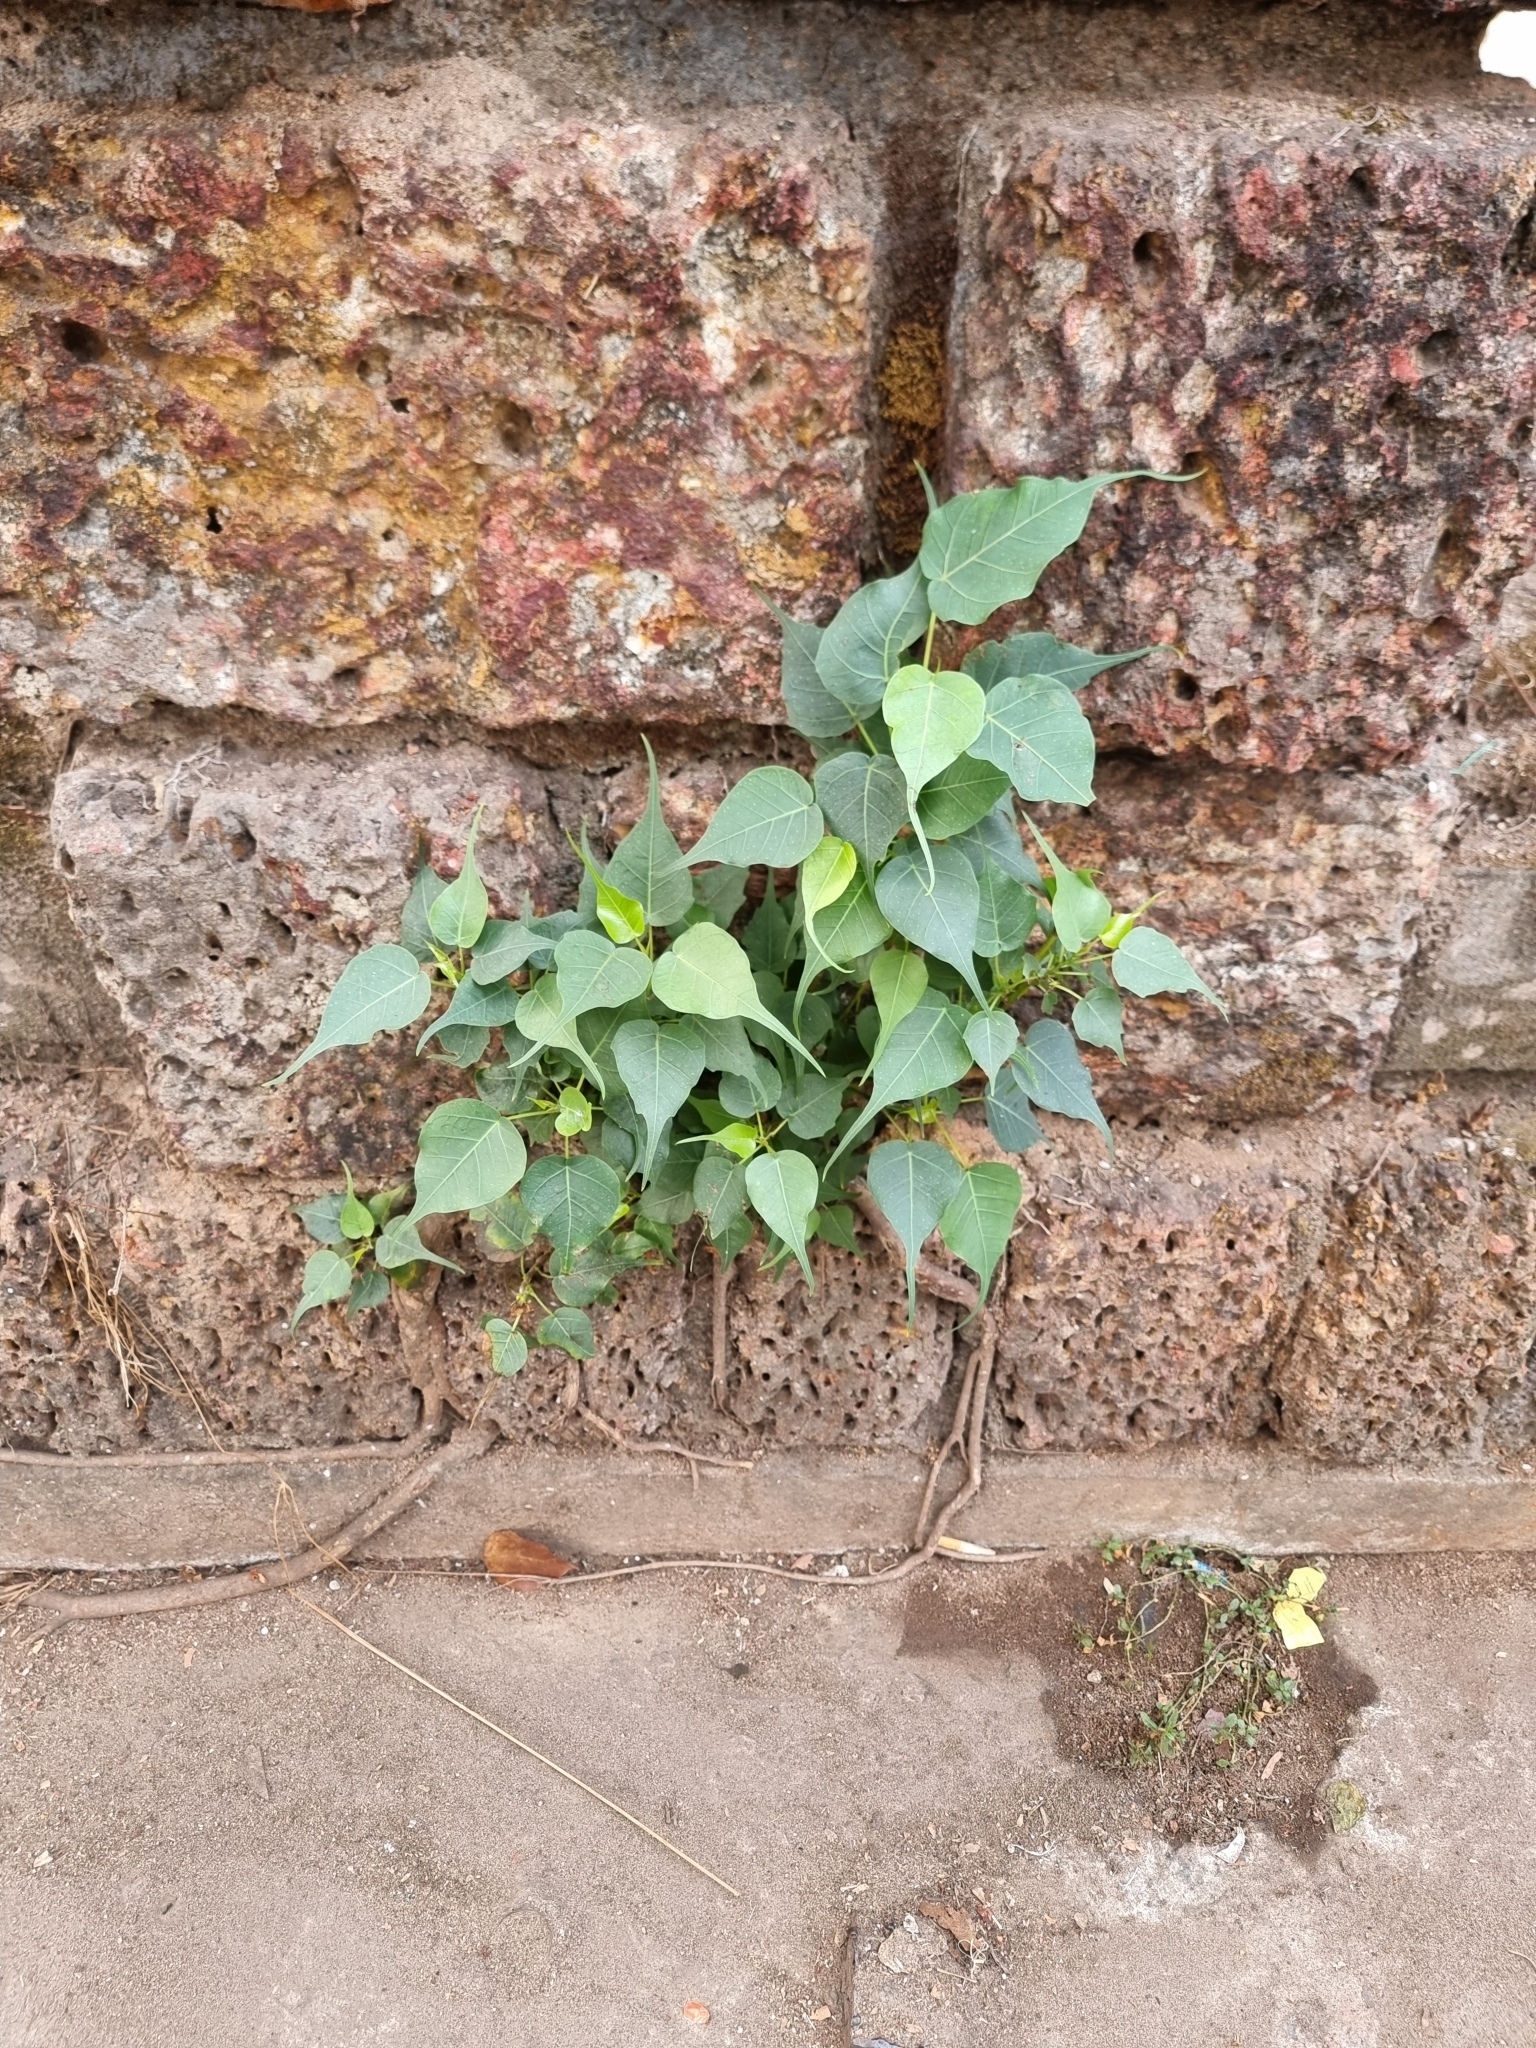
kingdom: Plantae
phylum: Tracheophyta
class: Magnoliopsida
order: Rosales
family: Moraceae
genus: Ficus
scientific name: Ficus religiosa
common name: Bodhi tree
